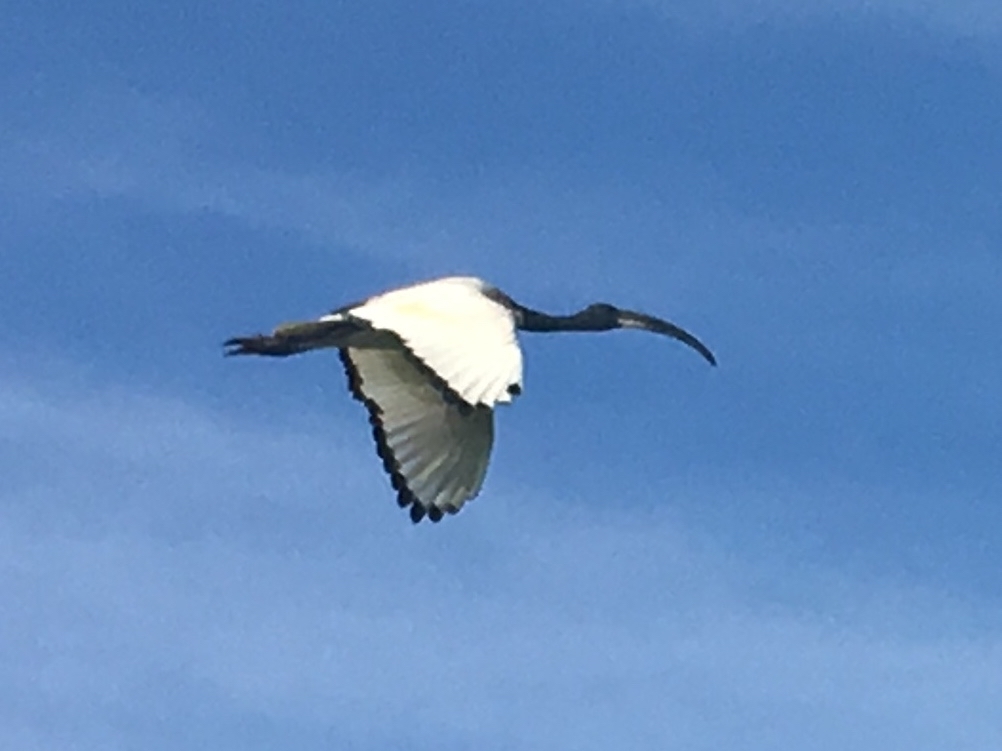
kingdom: Animalia
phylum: Chordata
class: Aves
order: Pelecaniformes
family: Threskiornithidae
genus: Threskiornis
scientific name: Threskiornis aethiopicus
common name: Sacred ibis
